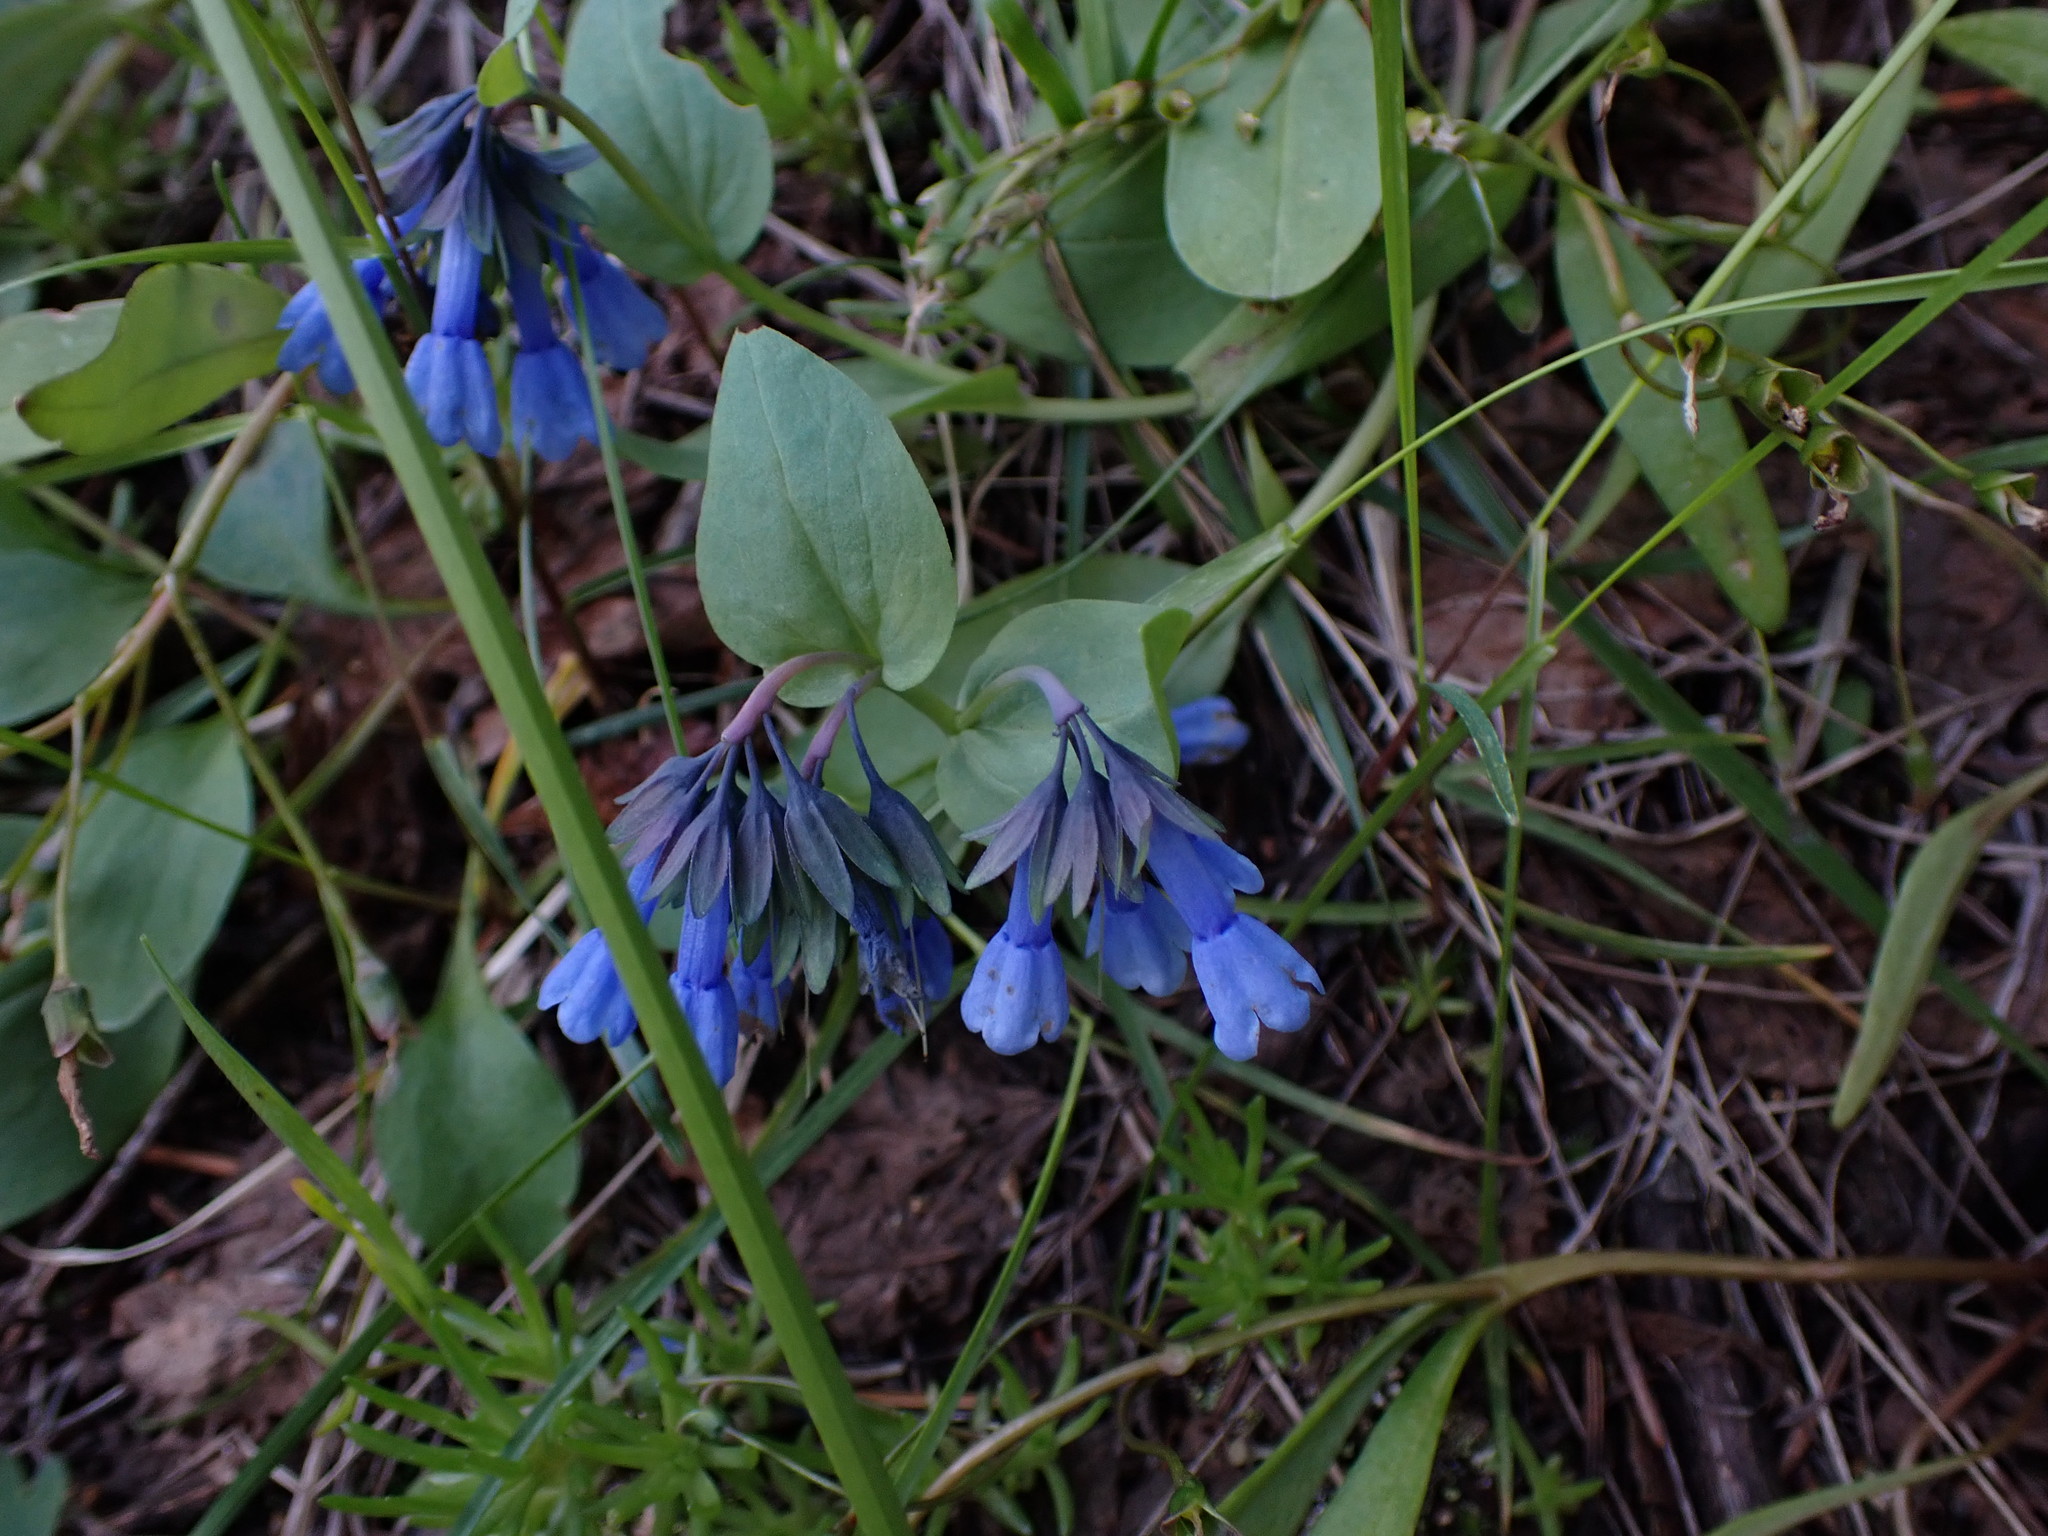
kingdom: Plantae
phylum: Tracheophyta
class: Magnoliopsida
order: Boraginales
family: Boraginaceae
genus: Mertensia
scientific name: Mertensia longiflora
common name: Large-flowered bluebells
